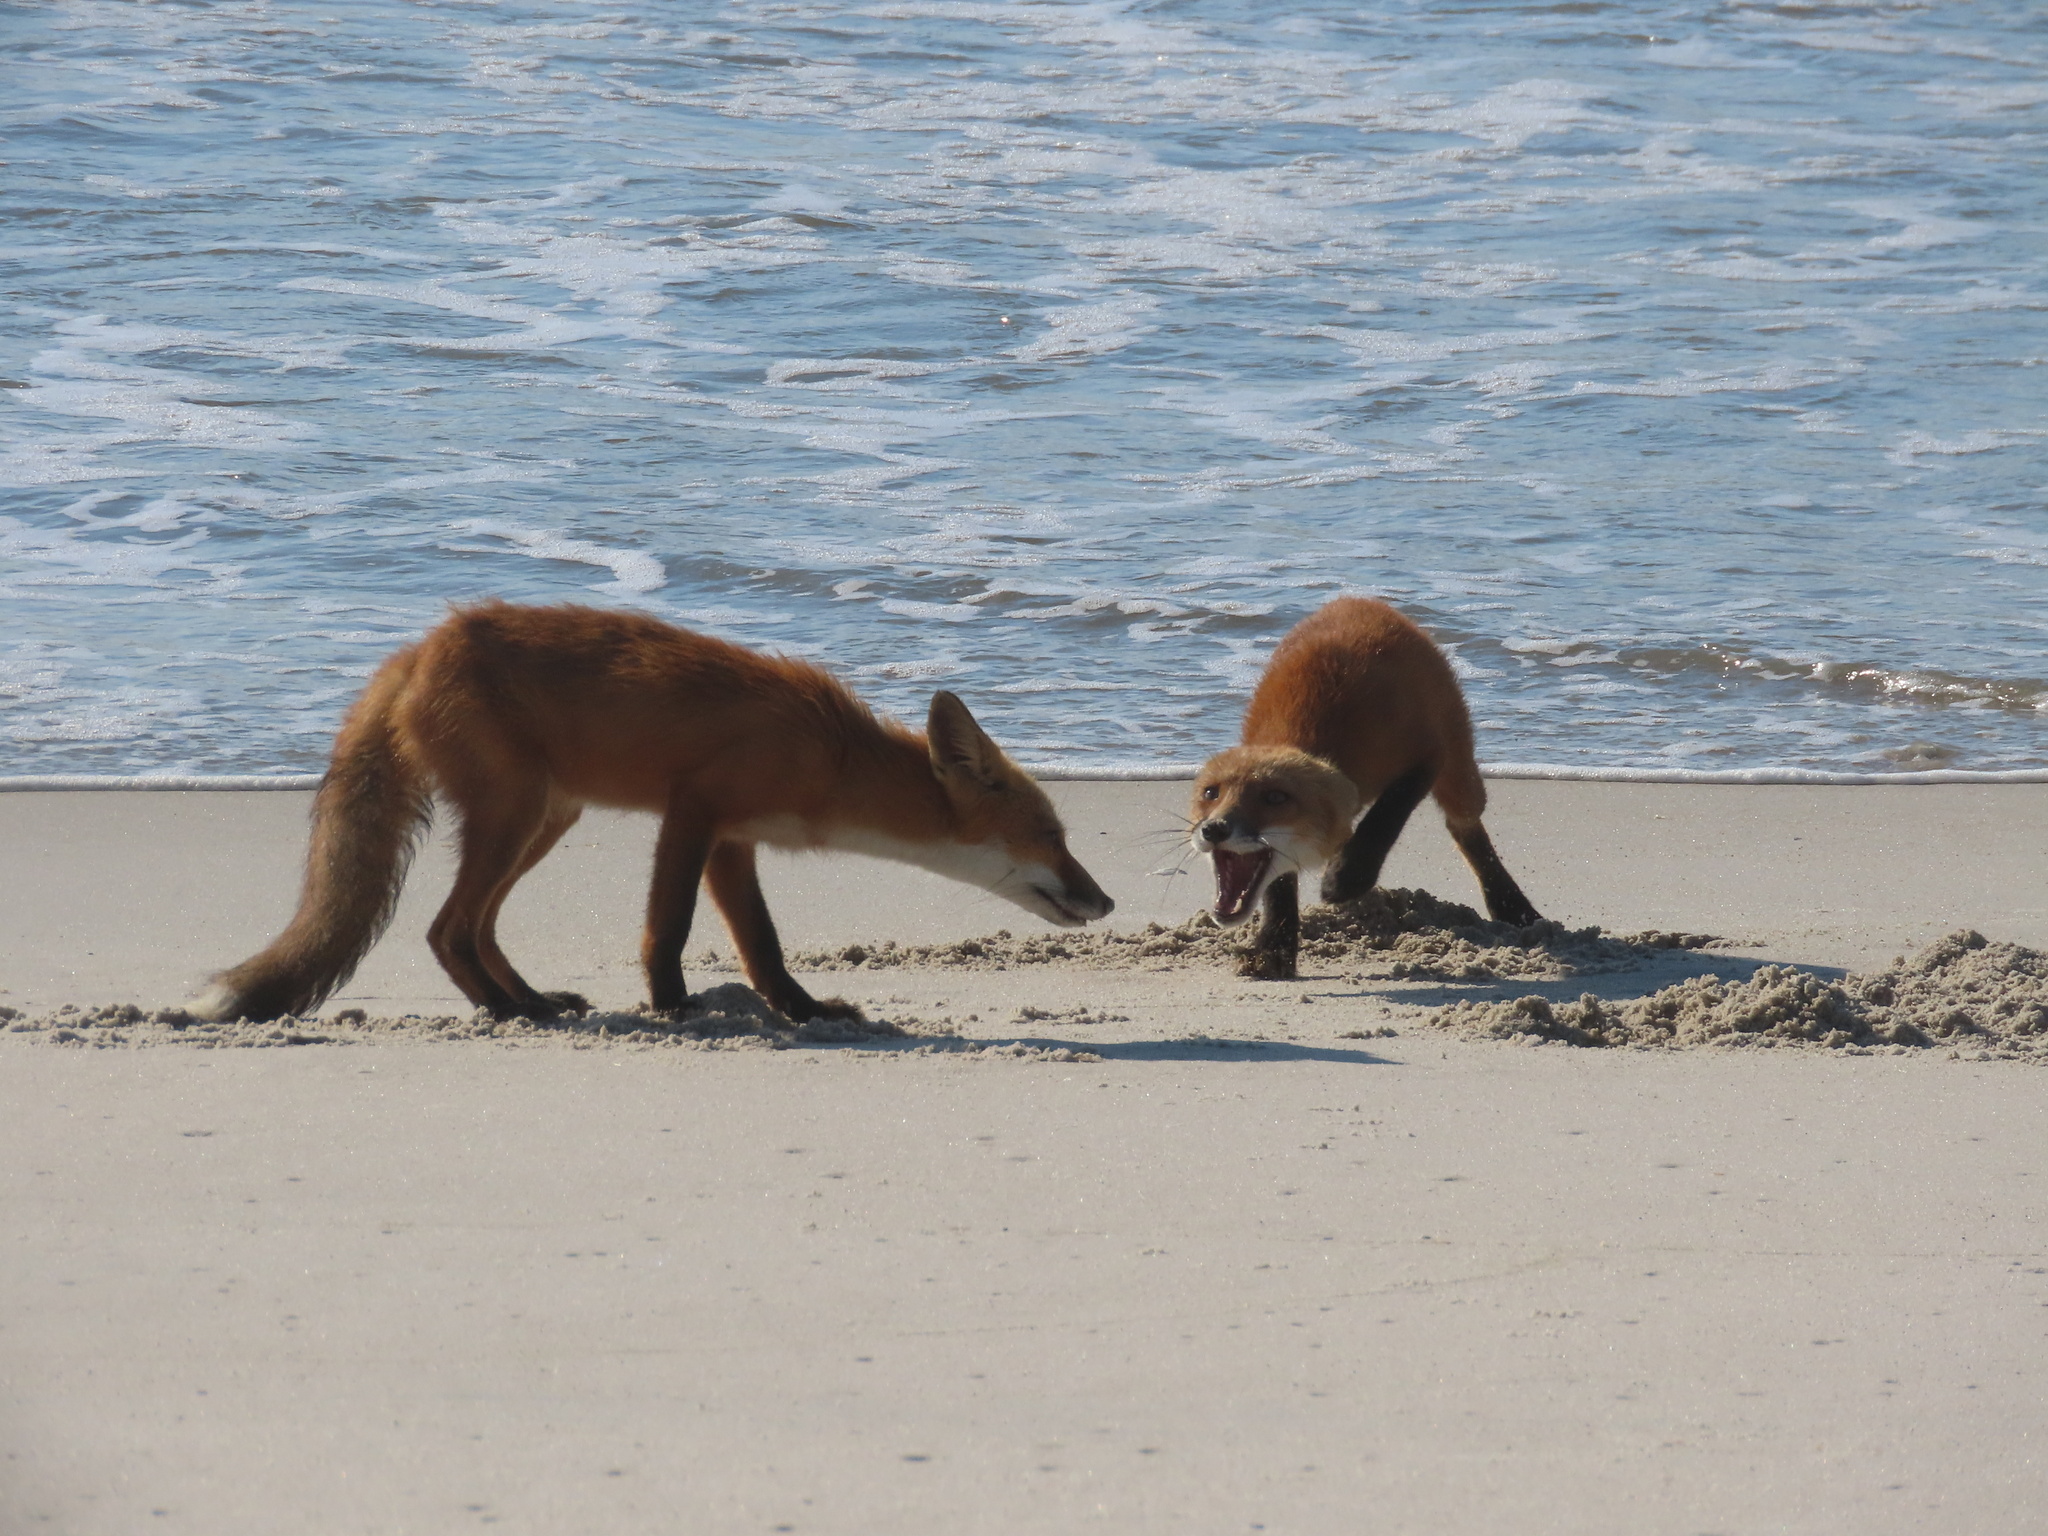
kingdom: Animalia
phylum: Chordata
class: Mammalia
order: Carnivora
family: Canidae
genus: Vulpes
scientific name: Vulpes vulpes
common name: Red fox
